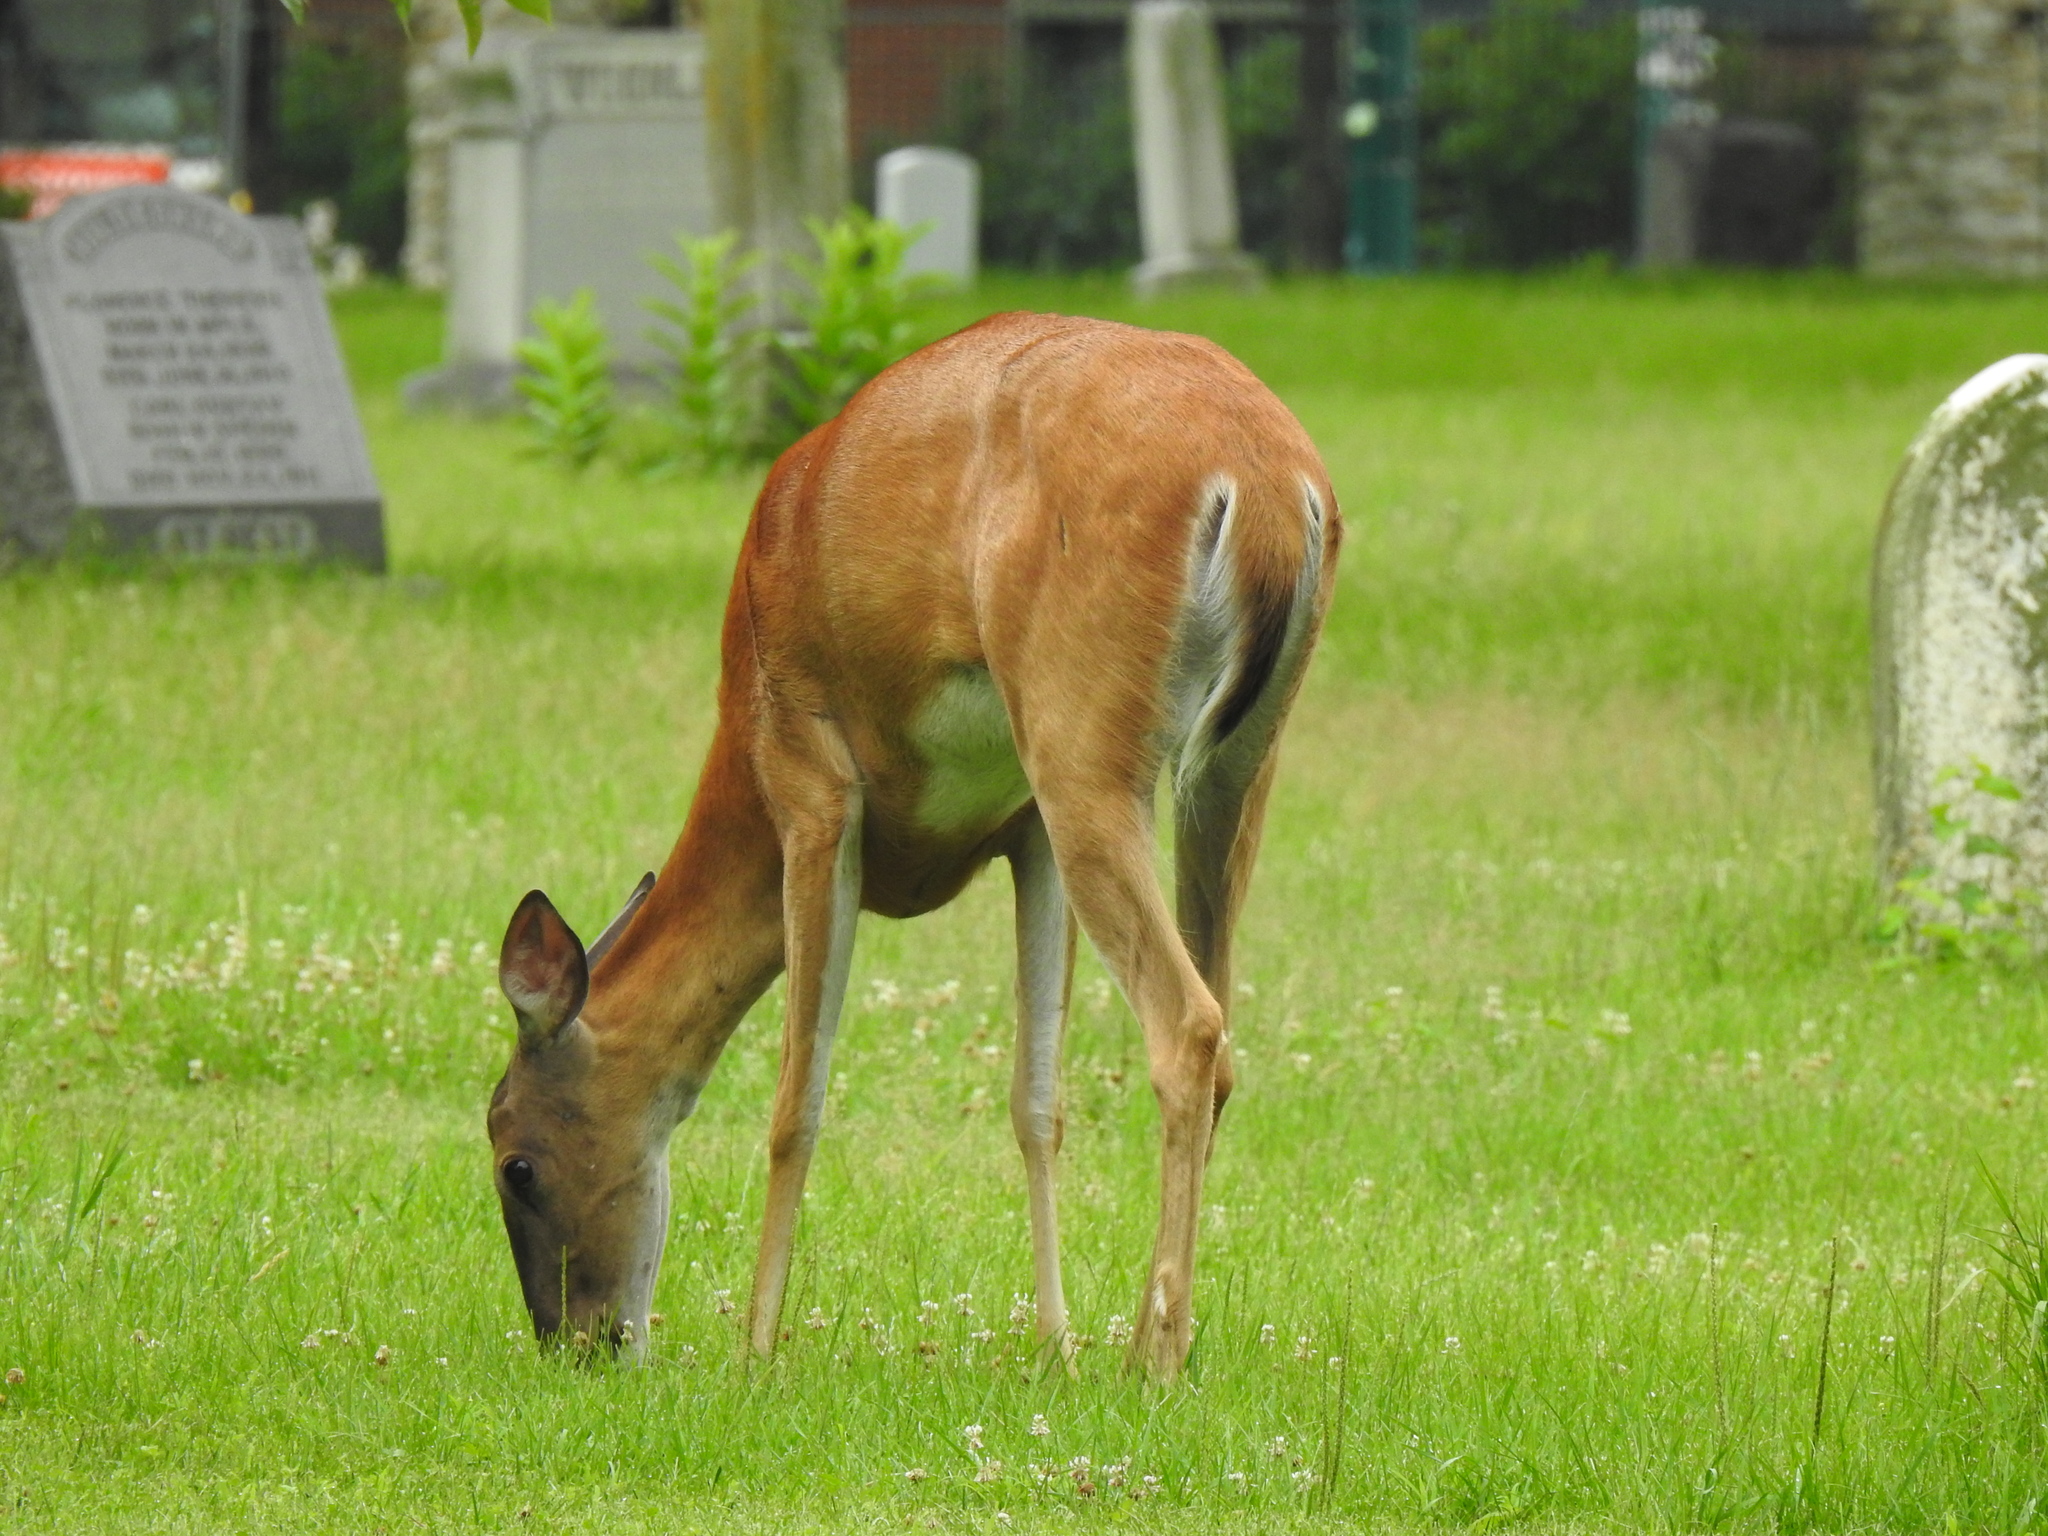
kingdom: Animalia
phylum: Chordata
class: Mammalia
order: Artiodactyla
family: Cervidae
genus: Odocoileus
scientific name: Odocoileus virginianus
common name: White-tailed deer
